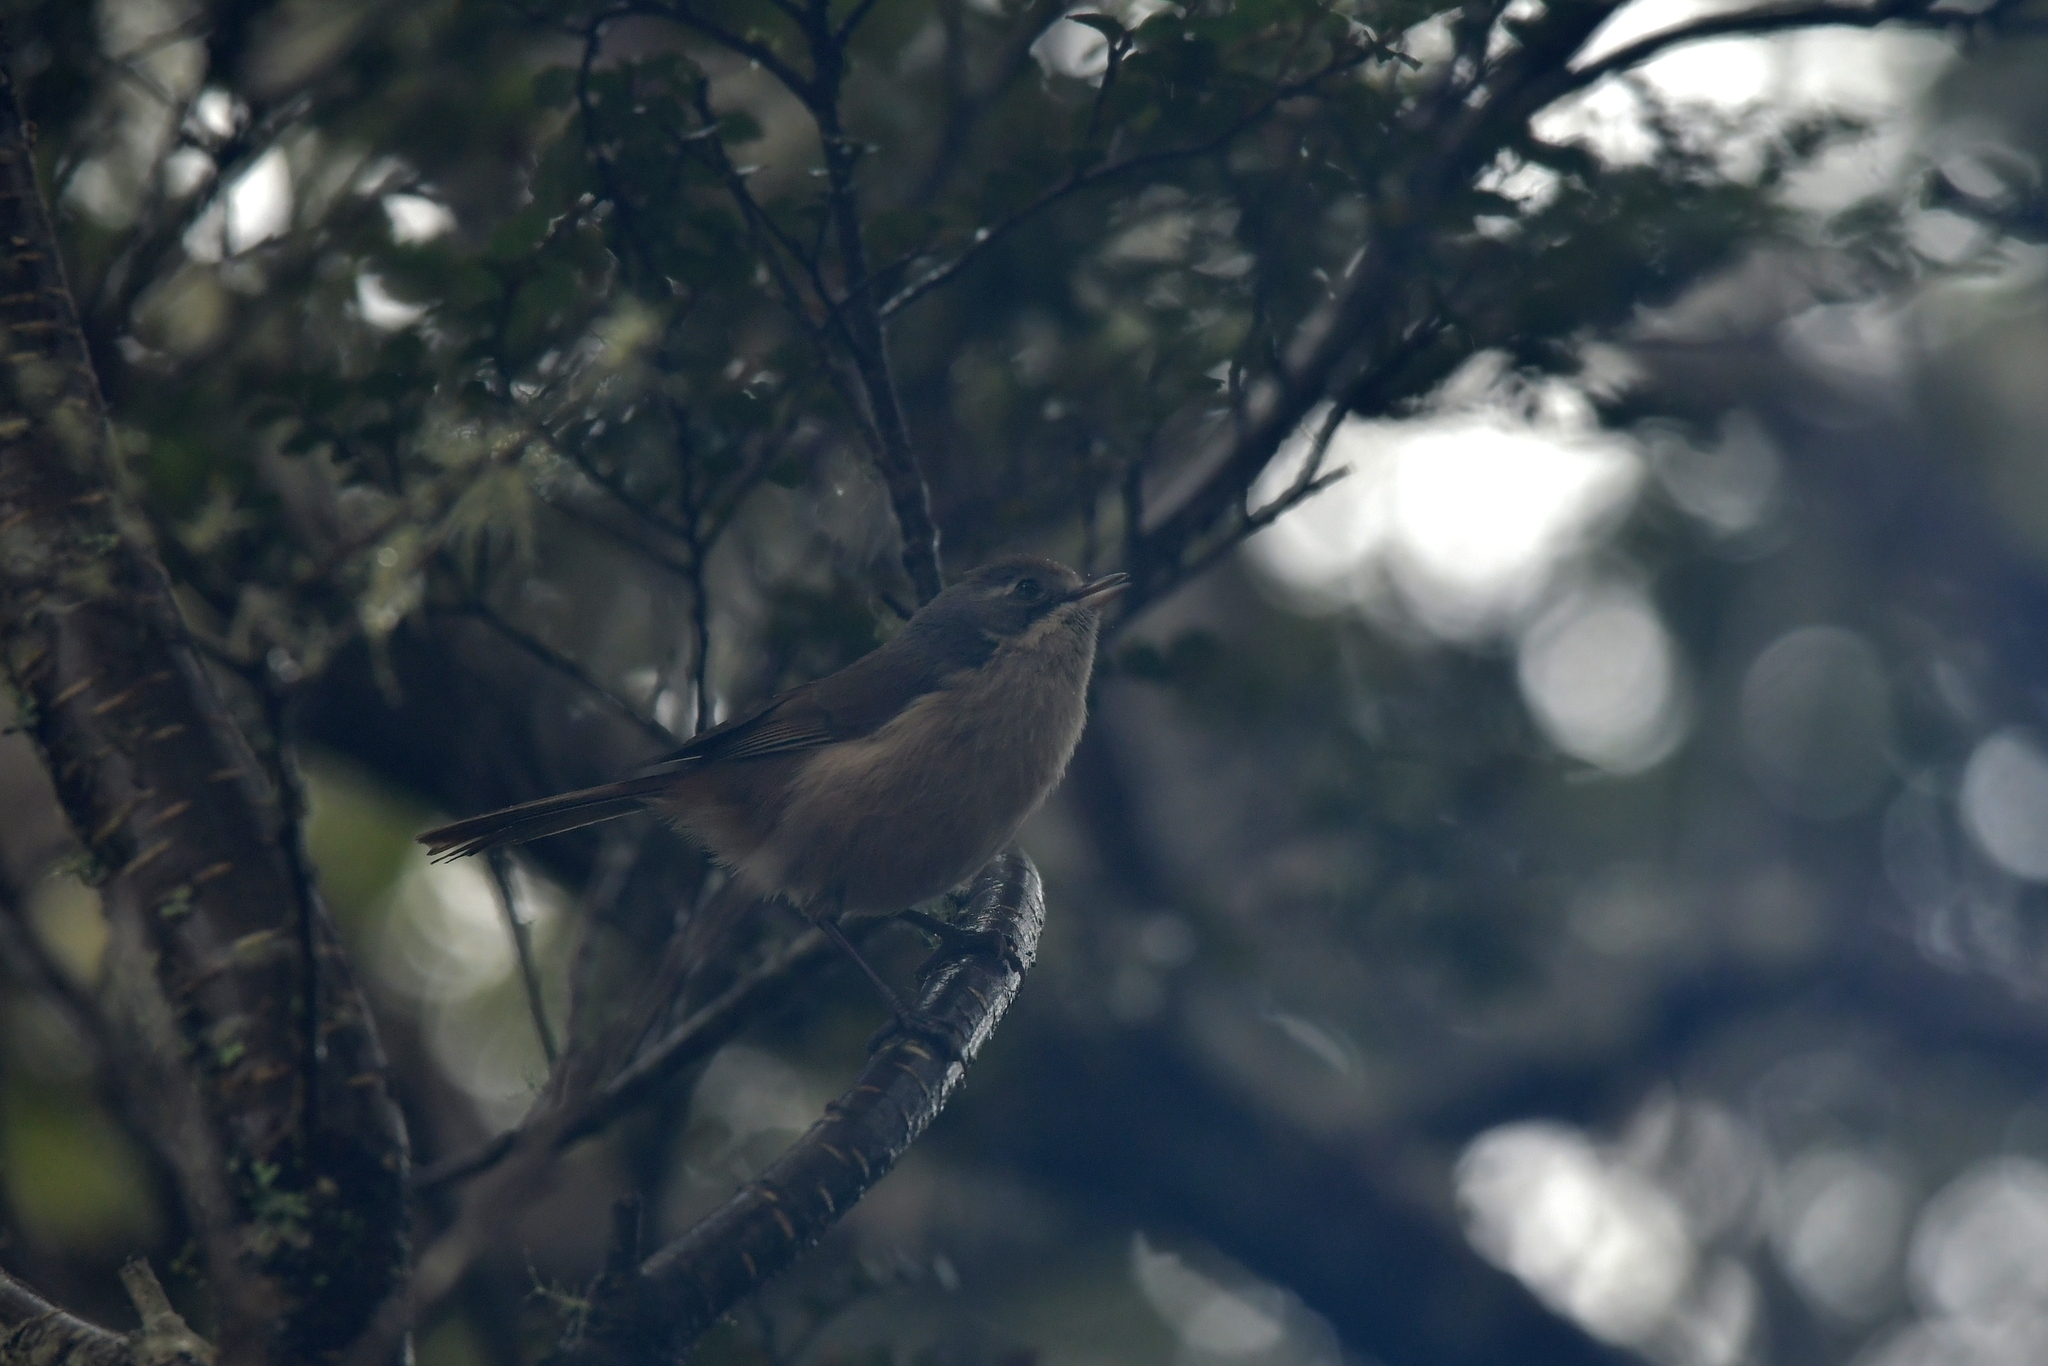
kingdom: Animalia
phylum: Chordata
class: Aves
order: Passeriformes
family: Acanthizidae
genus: Finschia
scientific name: Finschia novaeseelandiae
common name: Pipipi
